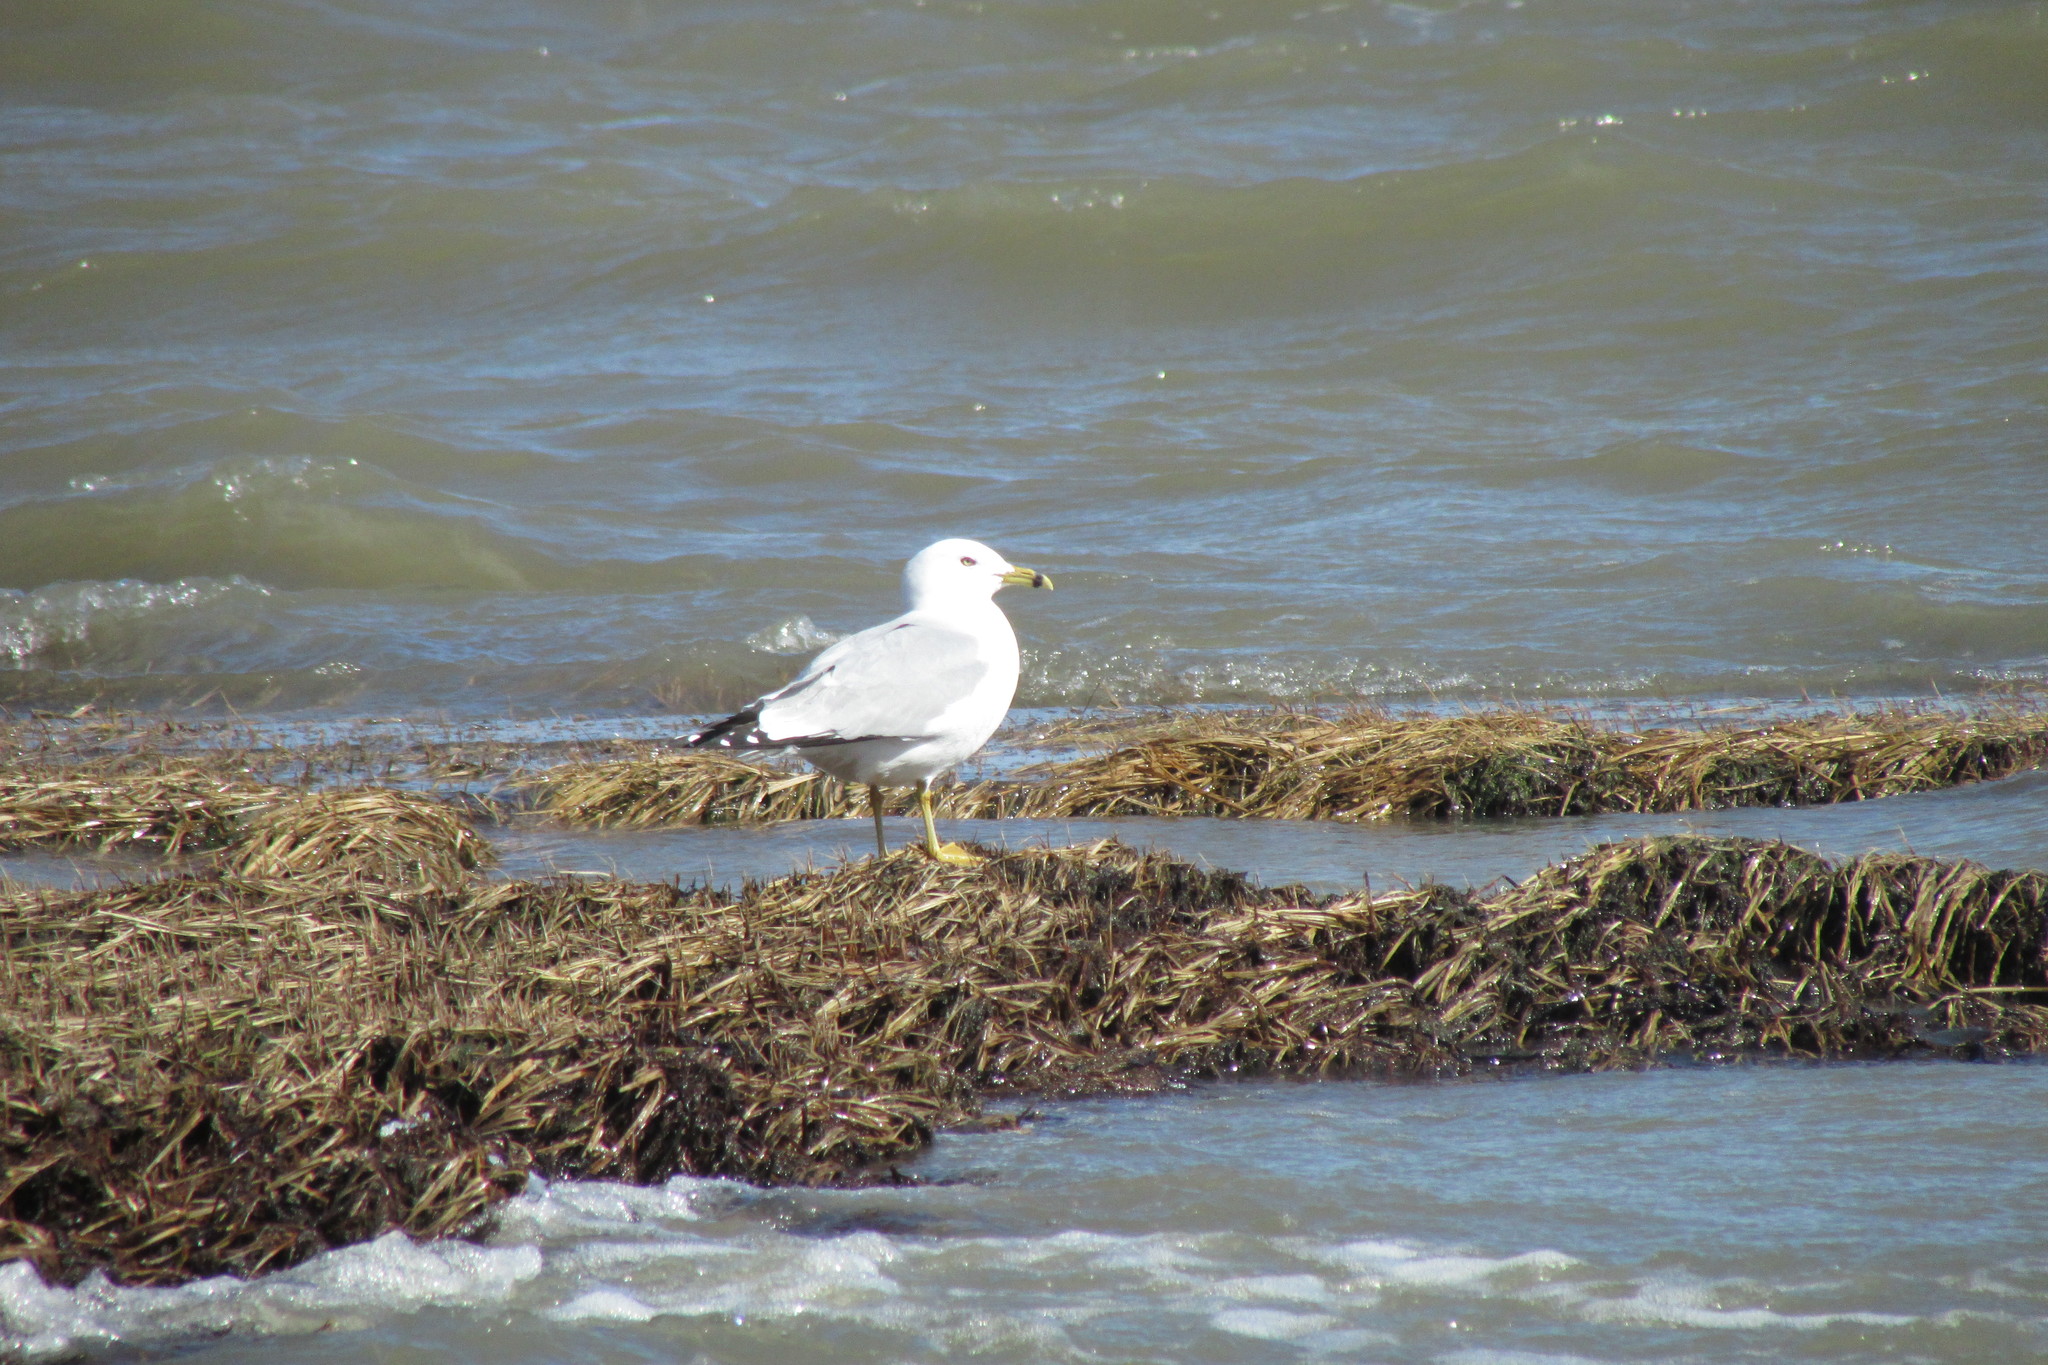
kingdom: Animalia
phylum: Chordata
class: Aves
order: Charadriiformes
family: Laridae
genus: Larus
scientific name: Larus delawarensis
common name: Ring-billed gull
